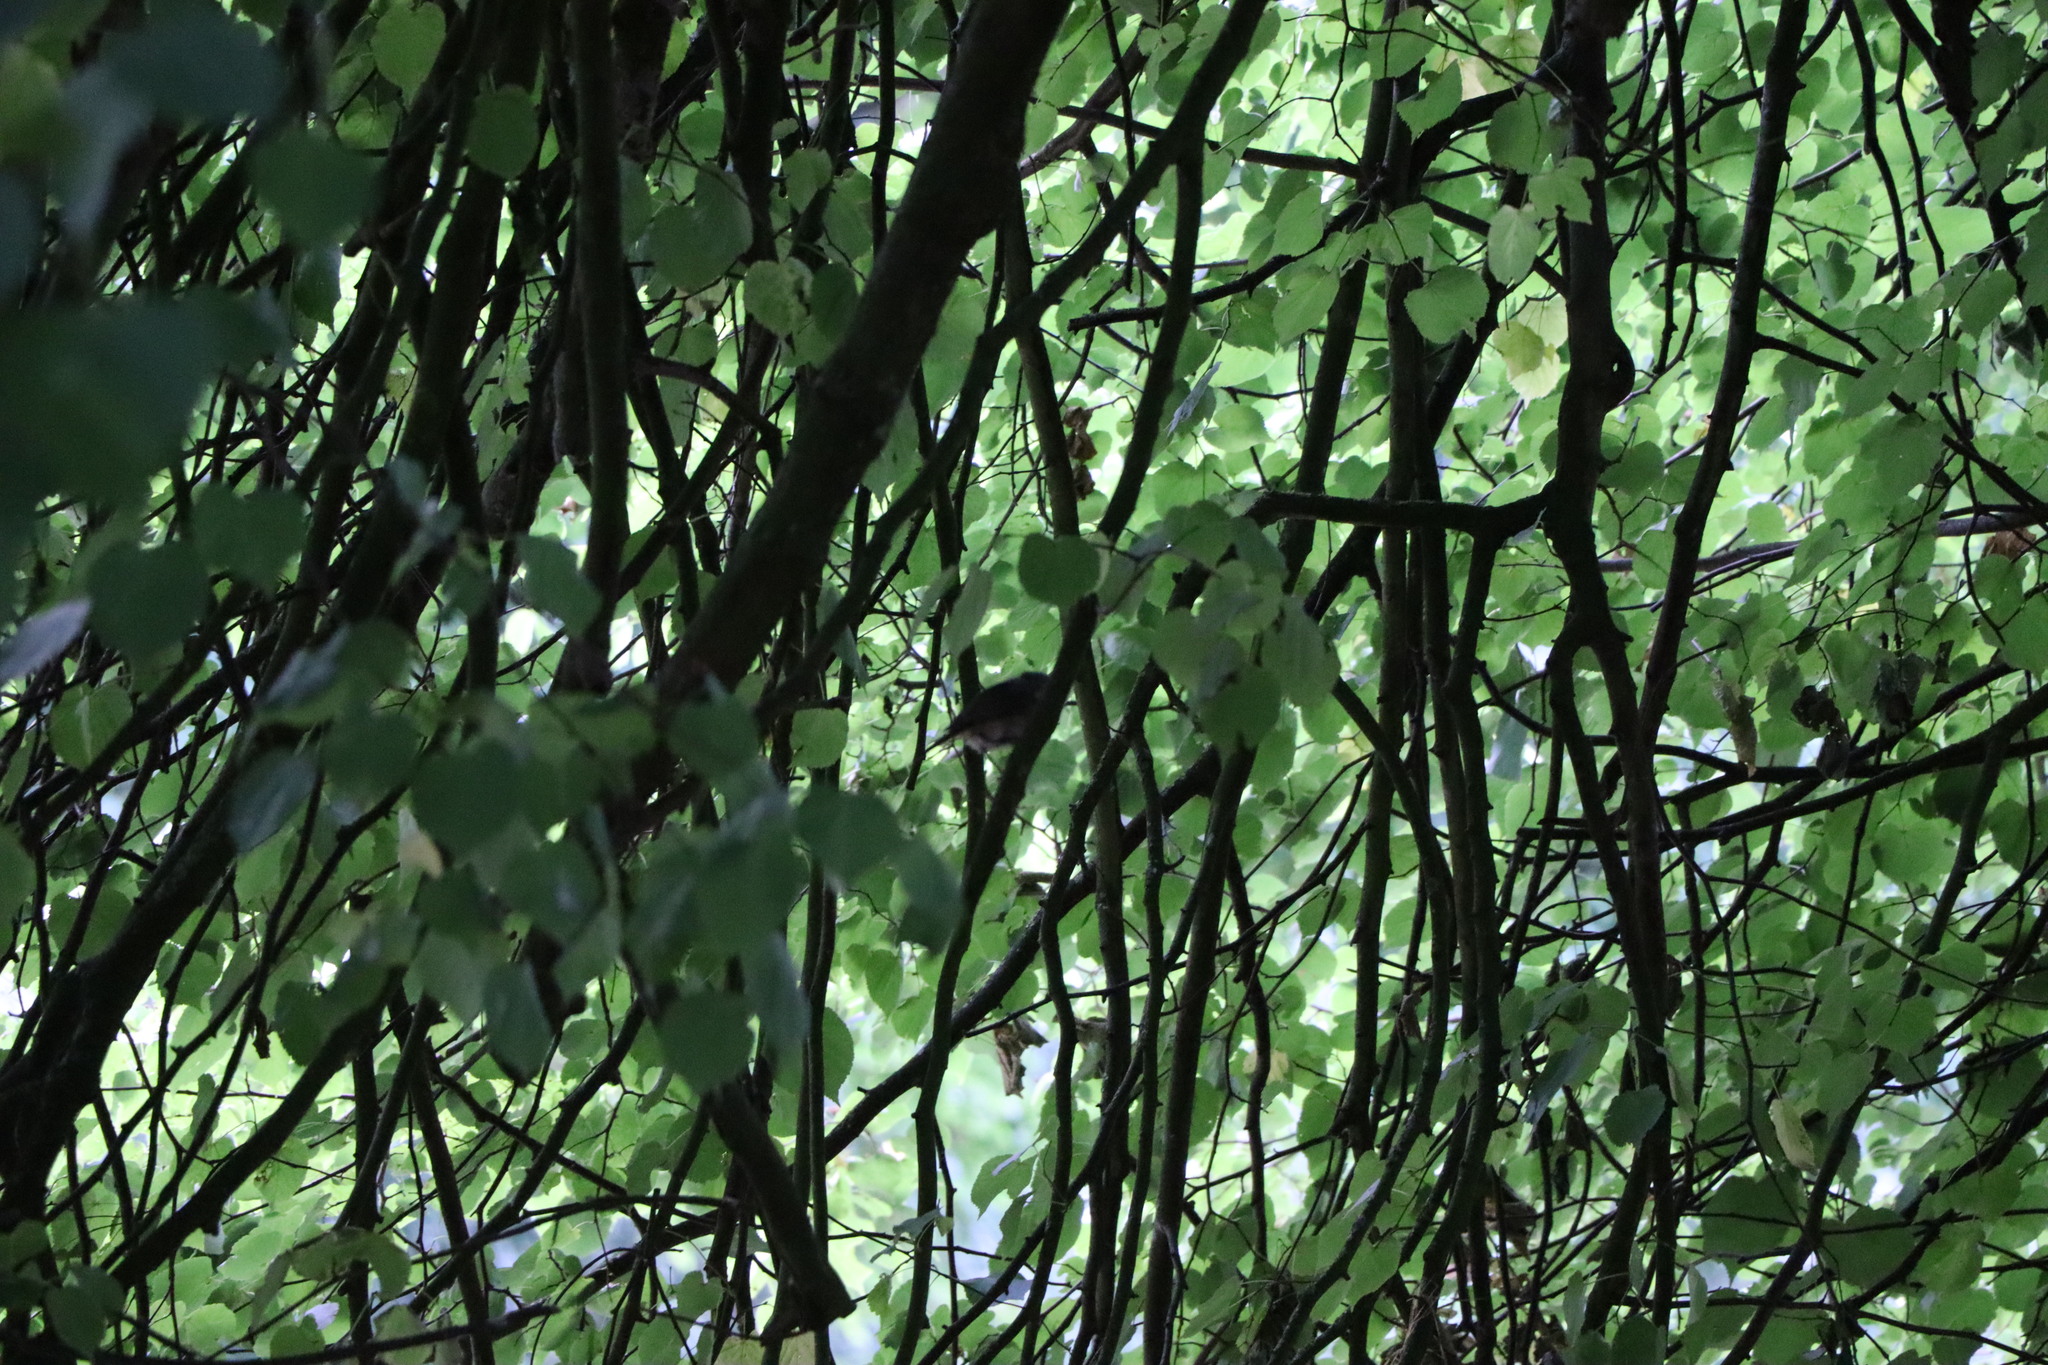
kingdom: Animalia
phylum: Chordata
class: Aves
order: Passeriformes
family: Muscicapidae
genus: Erithacus
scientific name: Erithacus rubecula
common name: European robin
